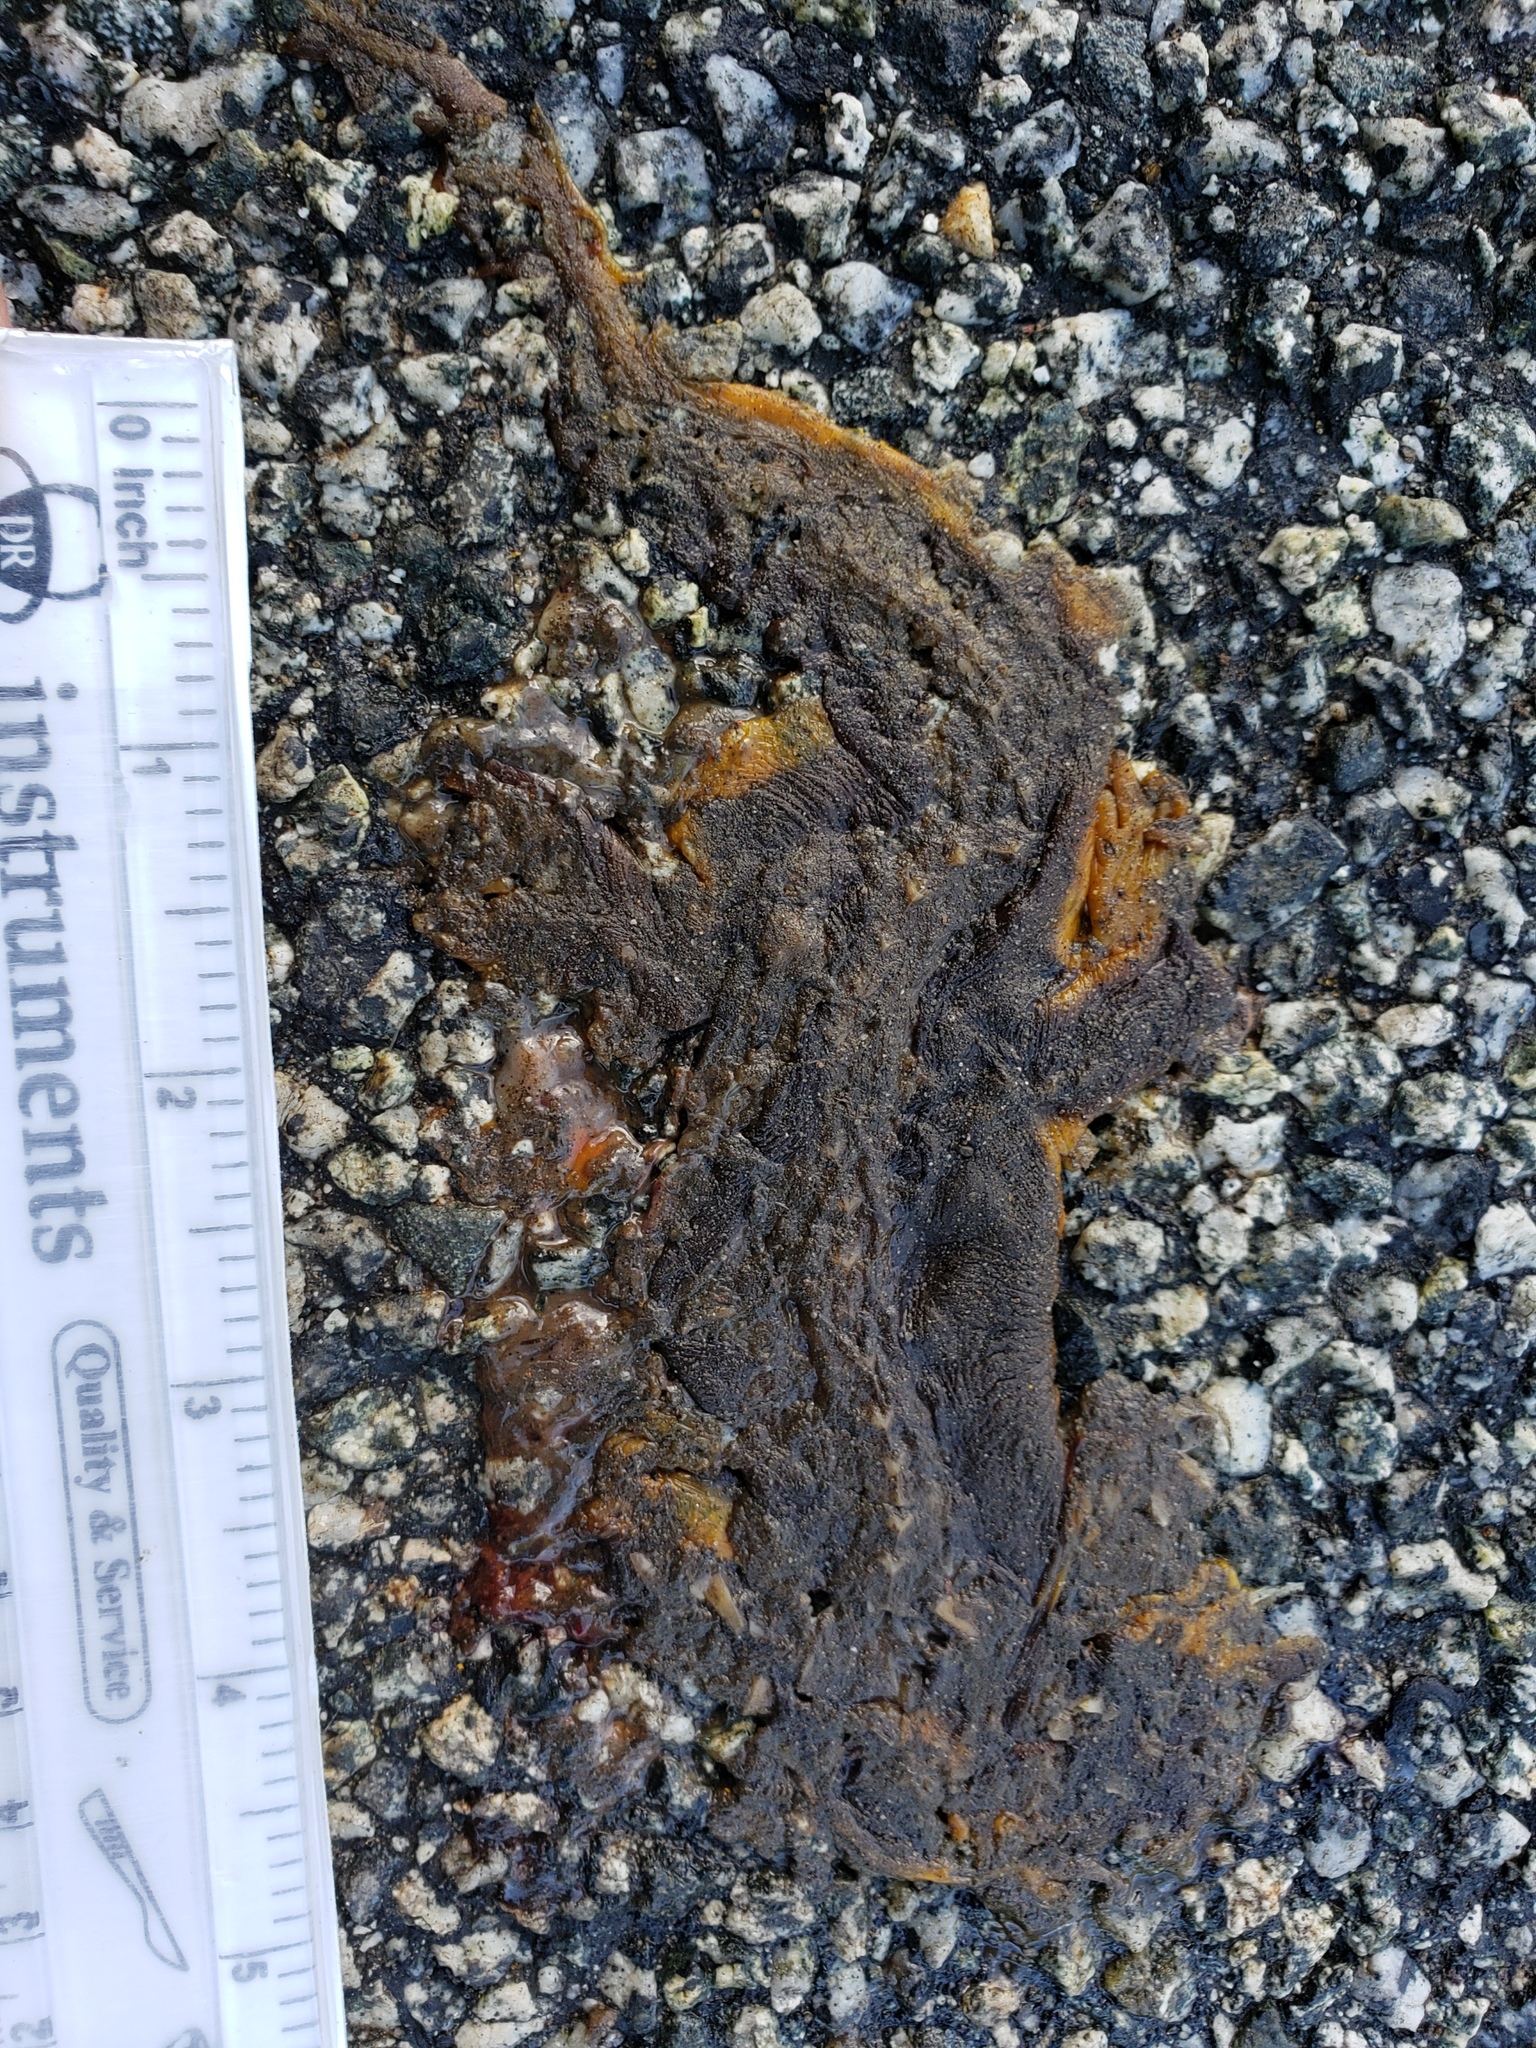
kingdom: Animalia
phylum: Chordata
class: Amphibia
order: Caudata
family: Salamandridae
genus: Taricha
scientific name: Taricha
